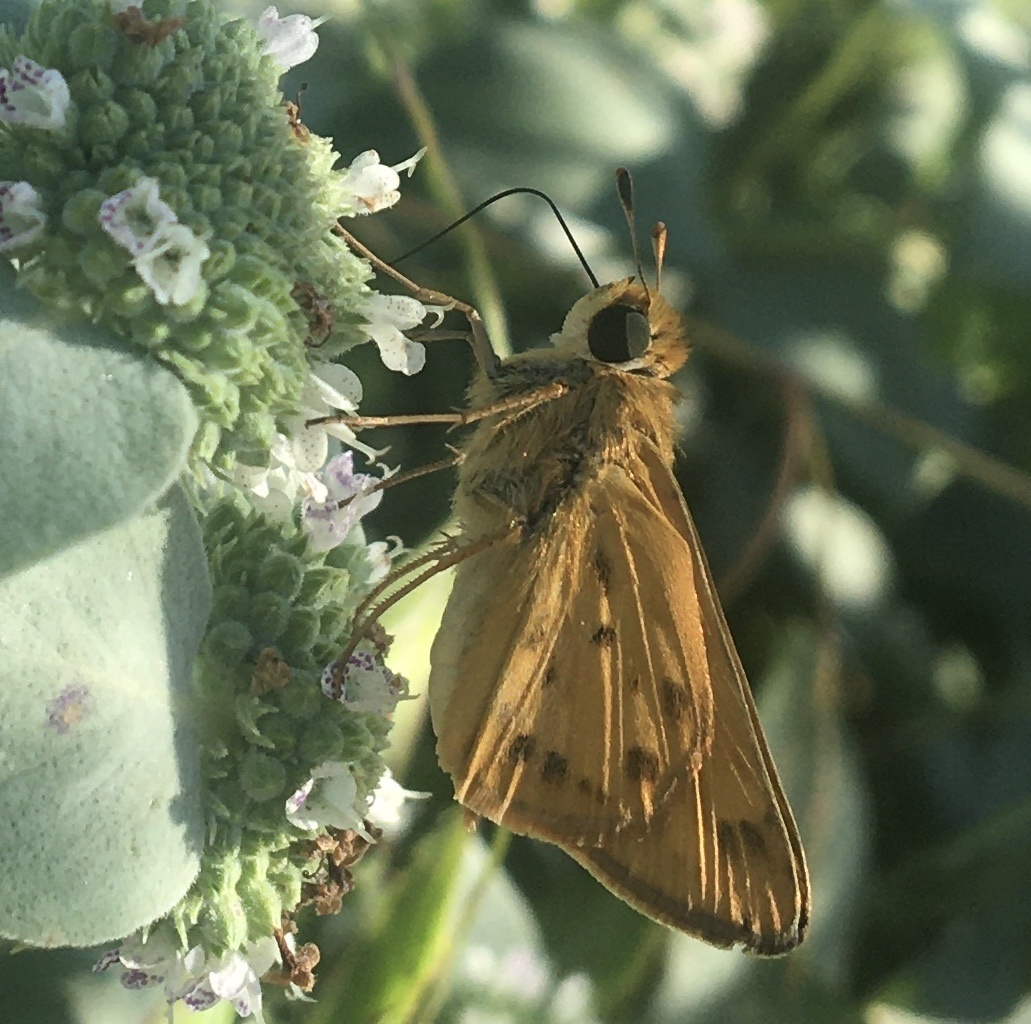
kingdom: Animalia
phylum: Arthropoda
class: Insecta
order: Lepidoptera
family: Hesperiidae
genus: Hylephila
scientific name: Hylephila phyleus
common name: Fiery skipper
